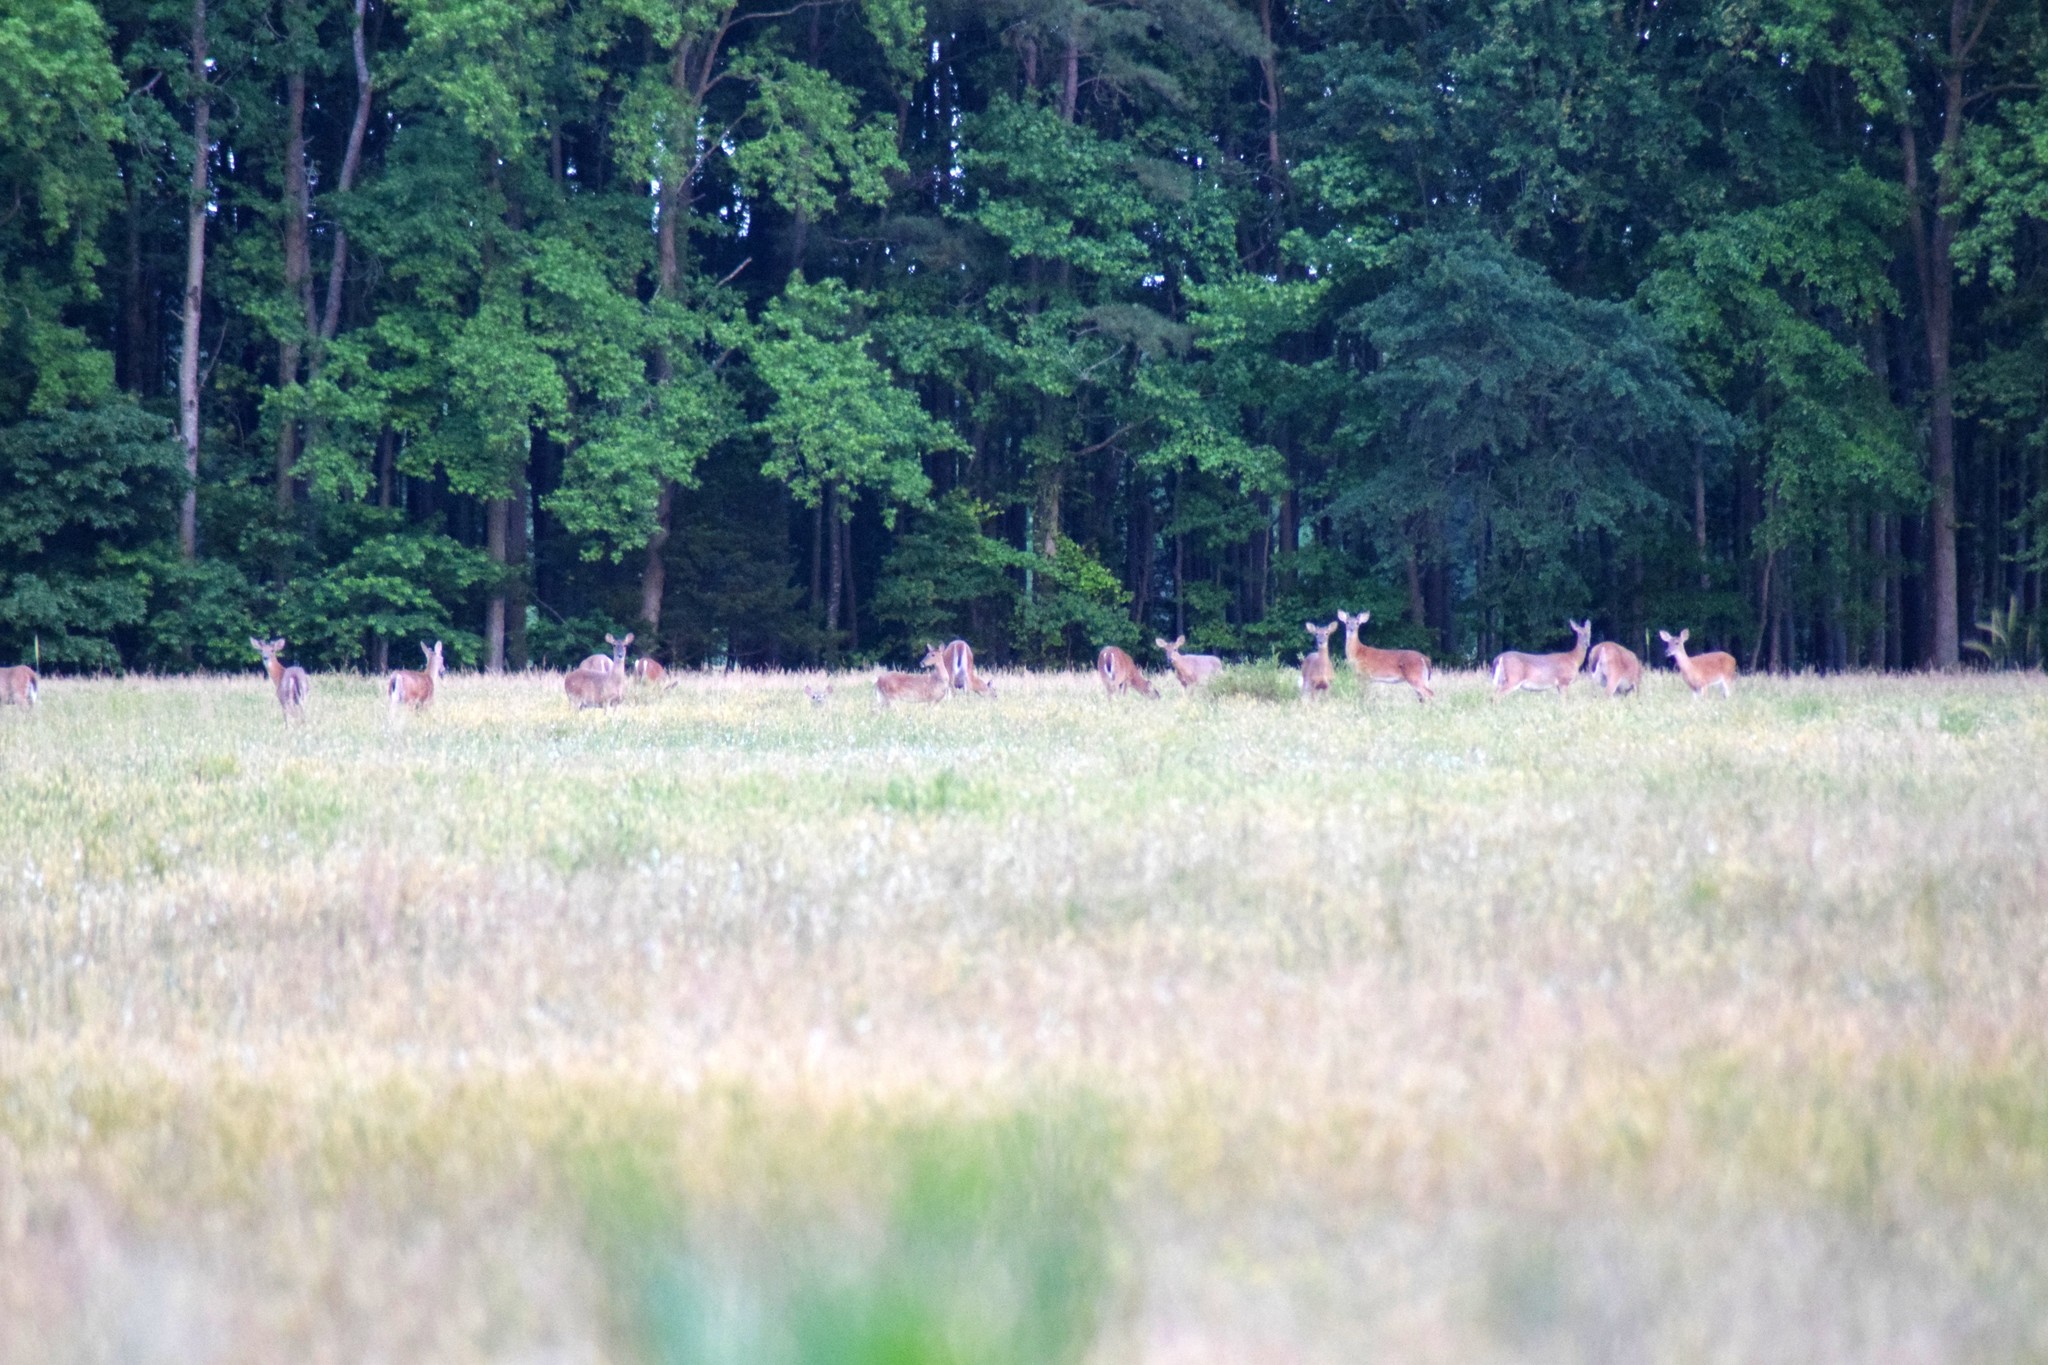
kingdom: Animalia
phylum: Chordata
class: Mammalia
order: Artiodactyla
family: Cervidae
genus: Odocoileus
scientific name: Odocoileus virginianus
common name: White-tailed deer
